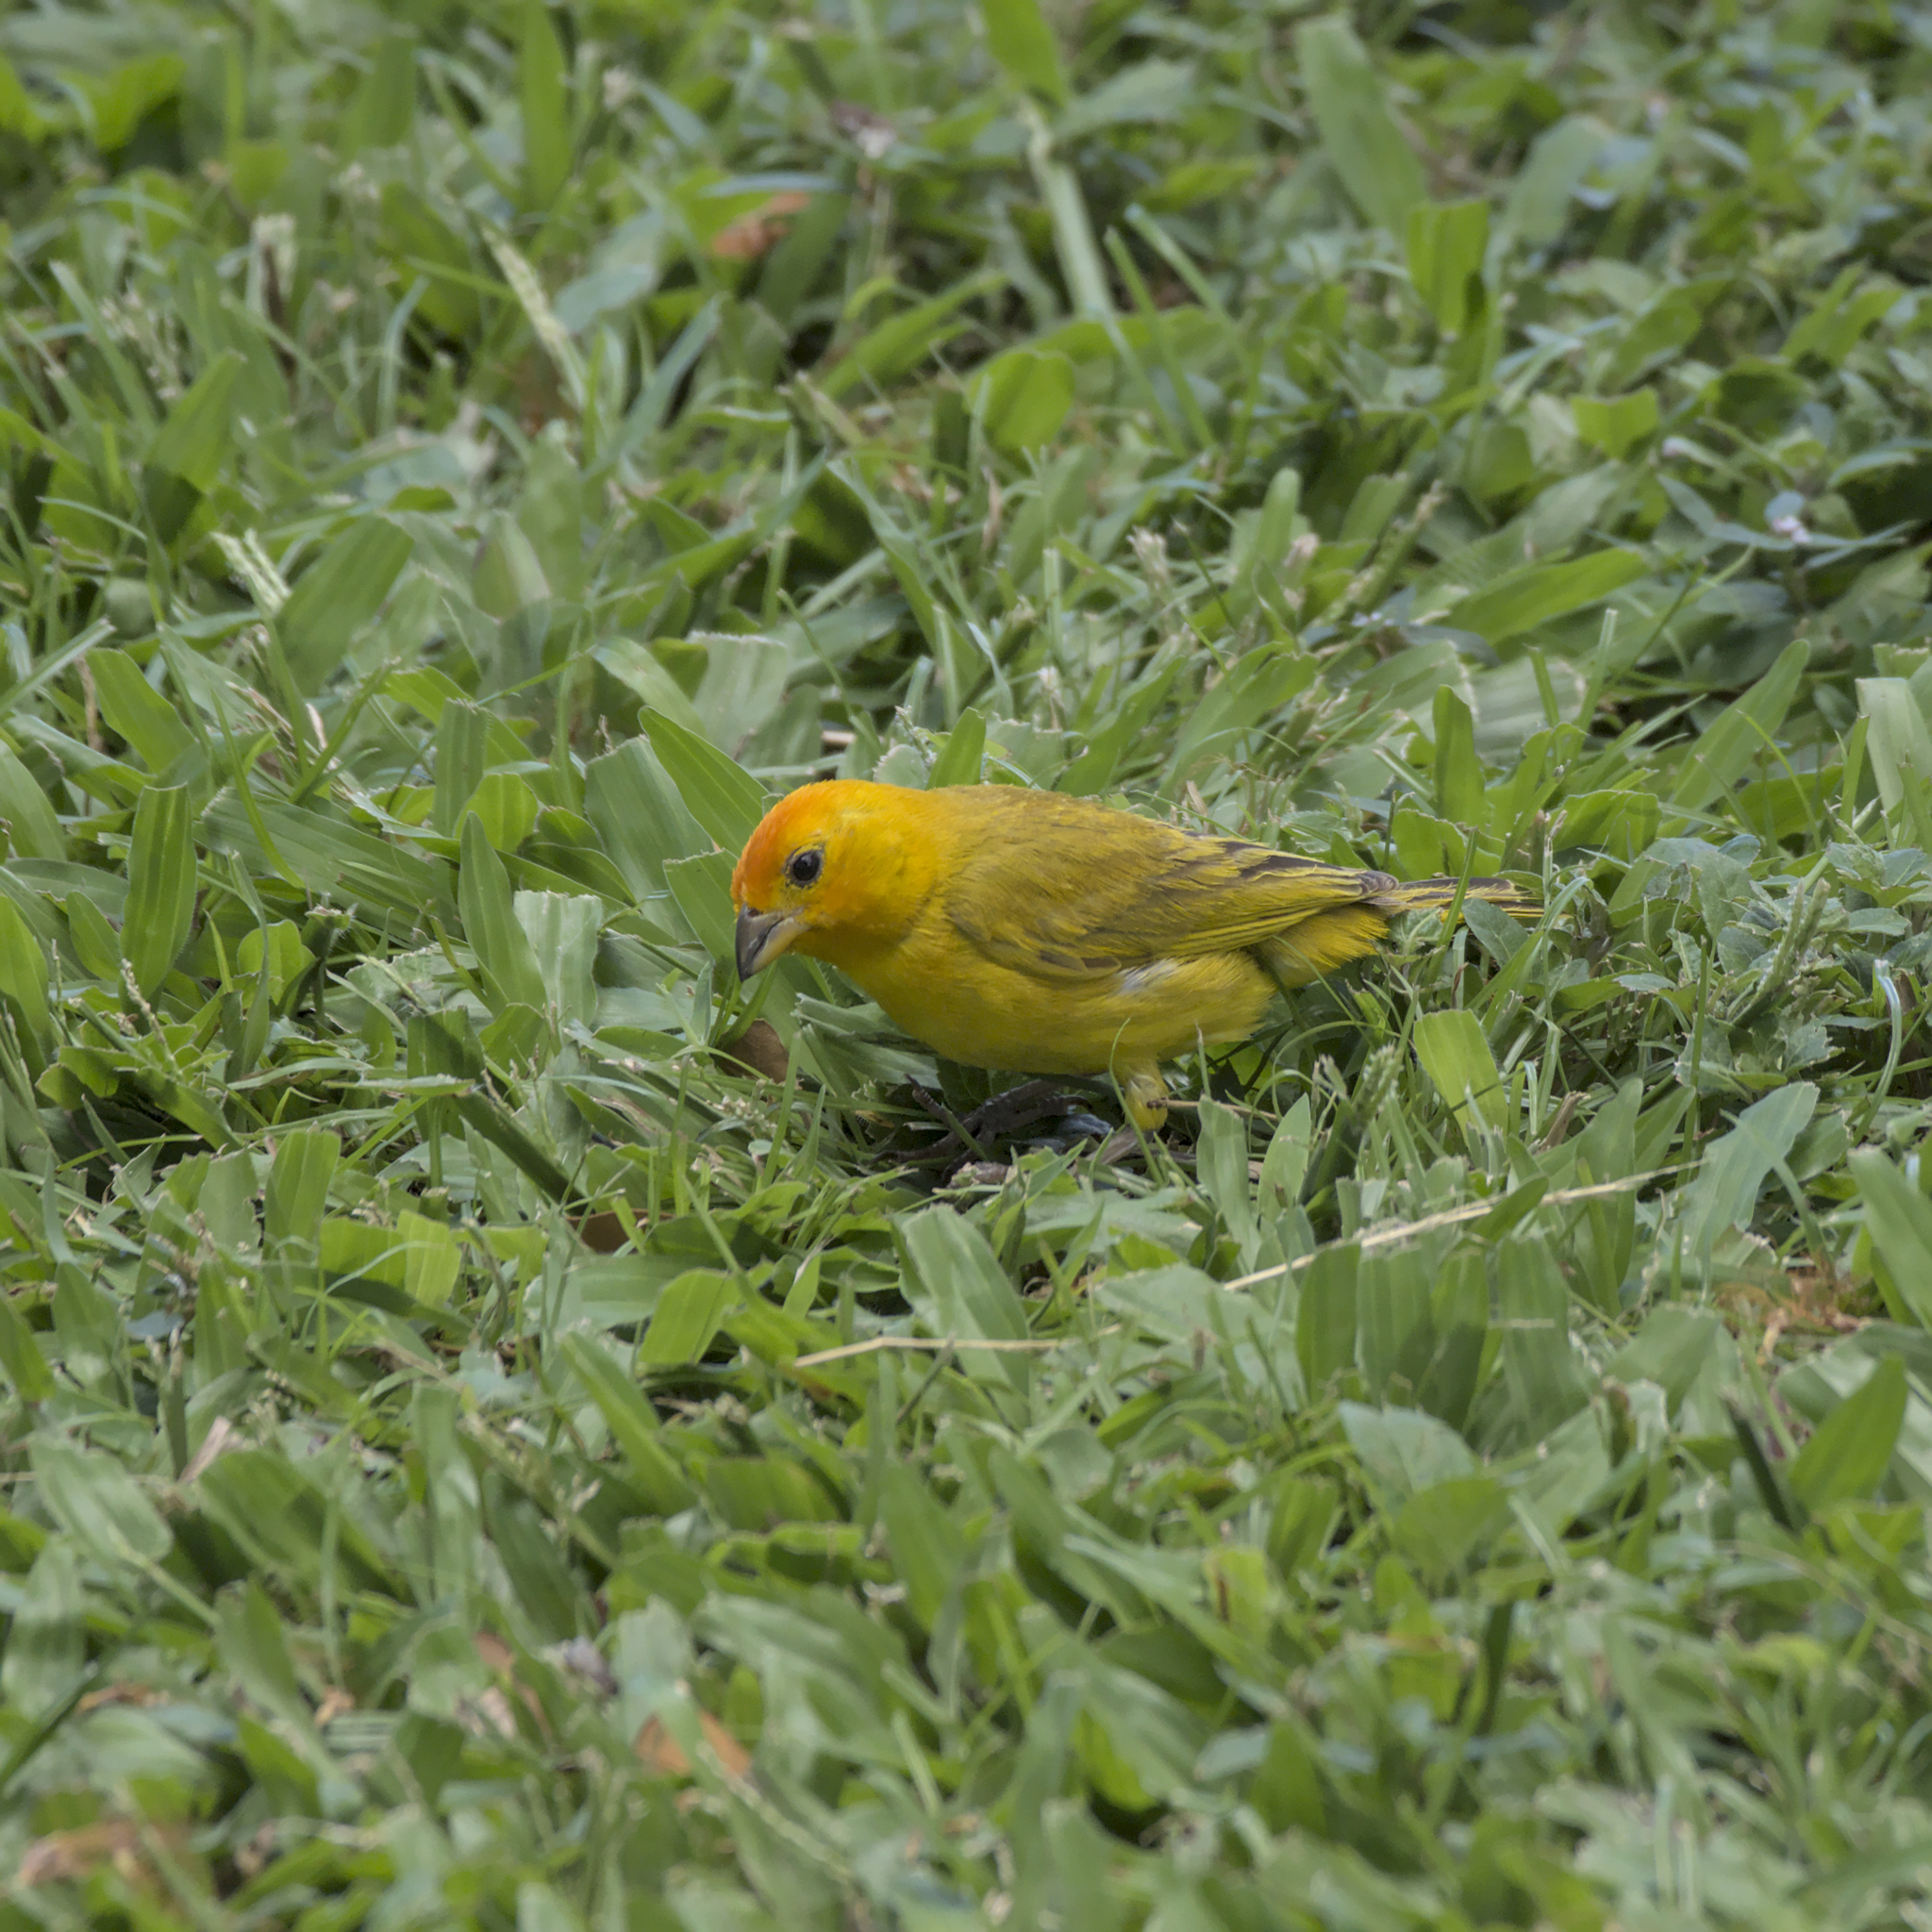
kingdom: Animalia
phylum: Chordata
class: Aves
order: Passeriformes
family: Thraupidae
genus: Sicalis
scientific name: Sicalis flaveola
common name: Saffron finch
